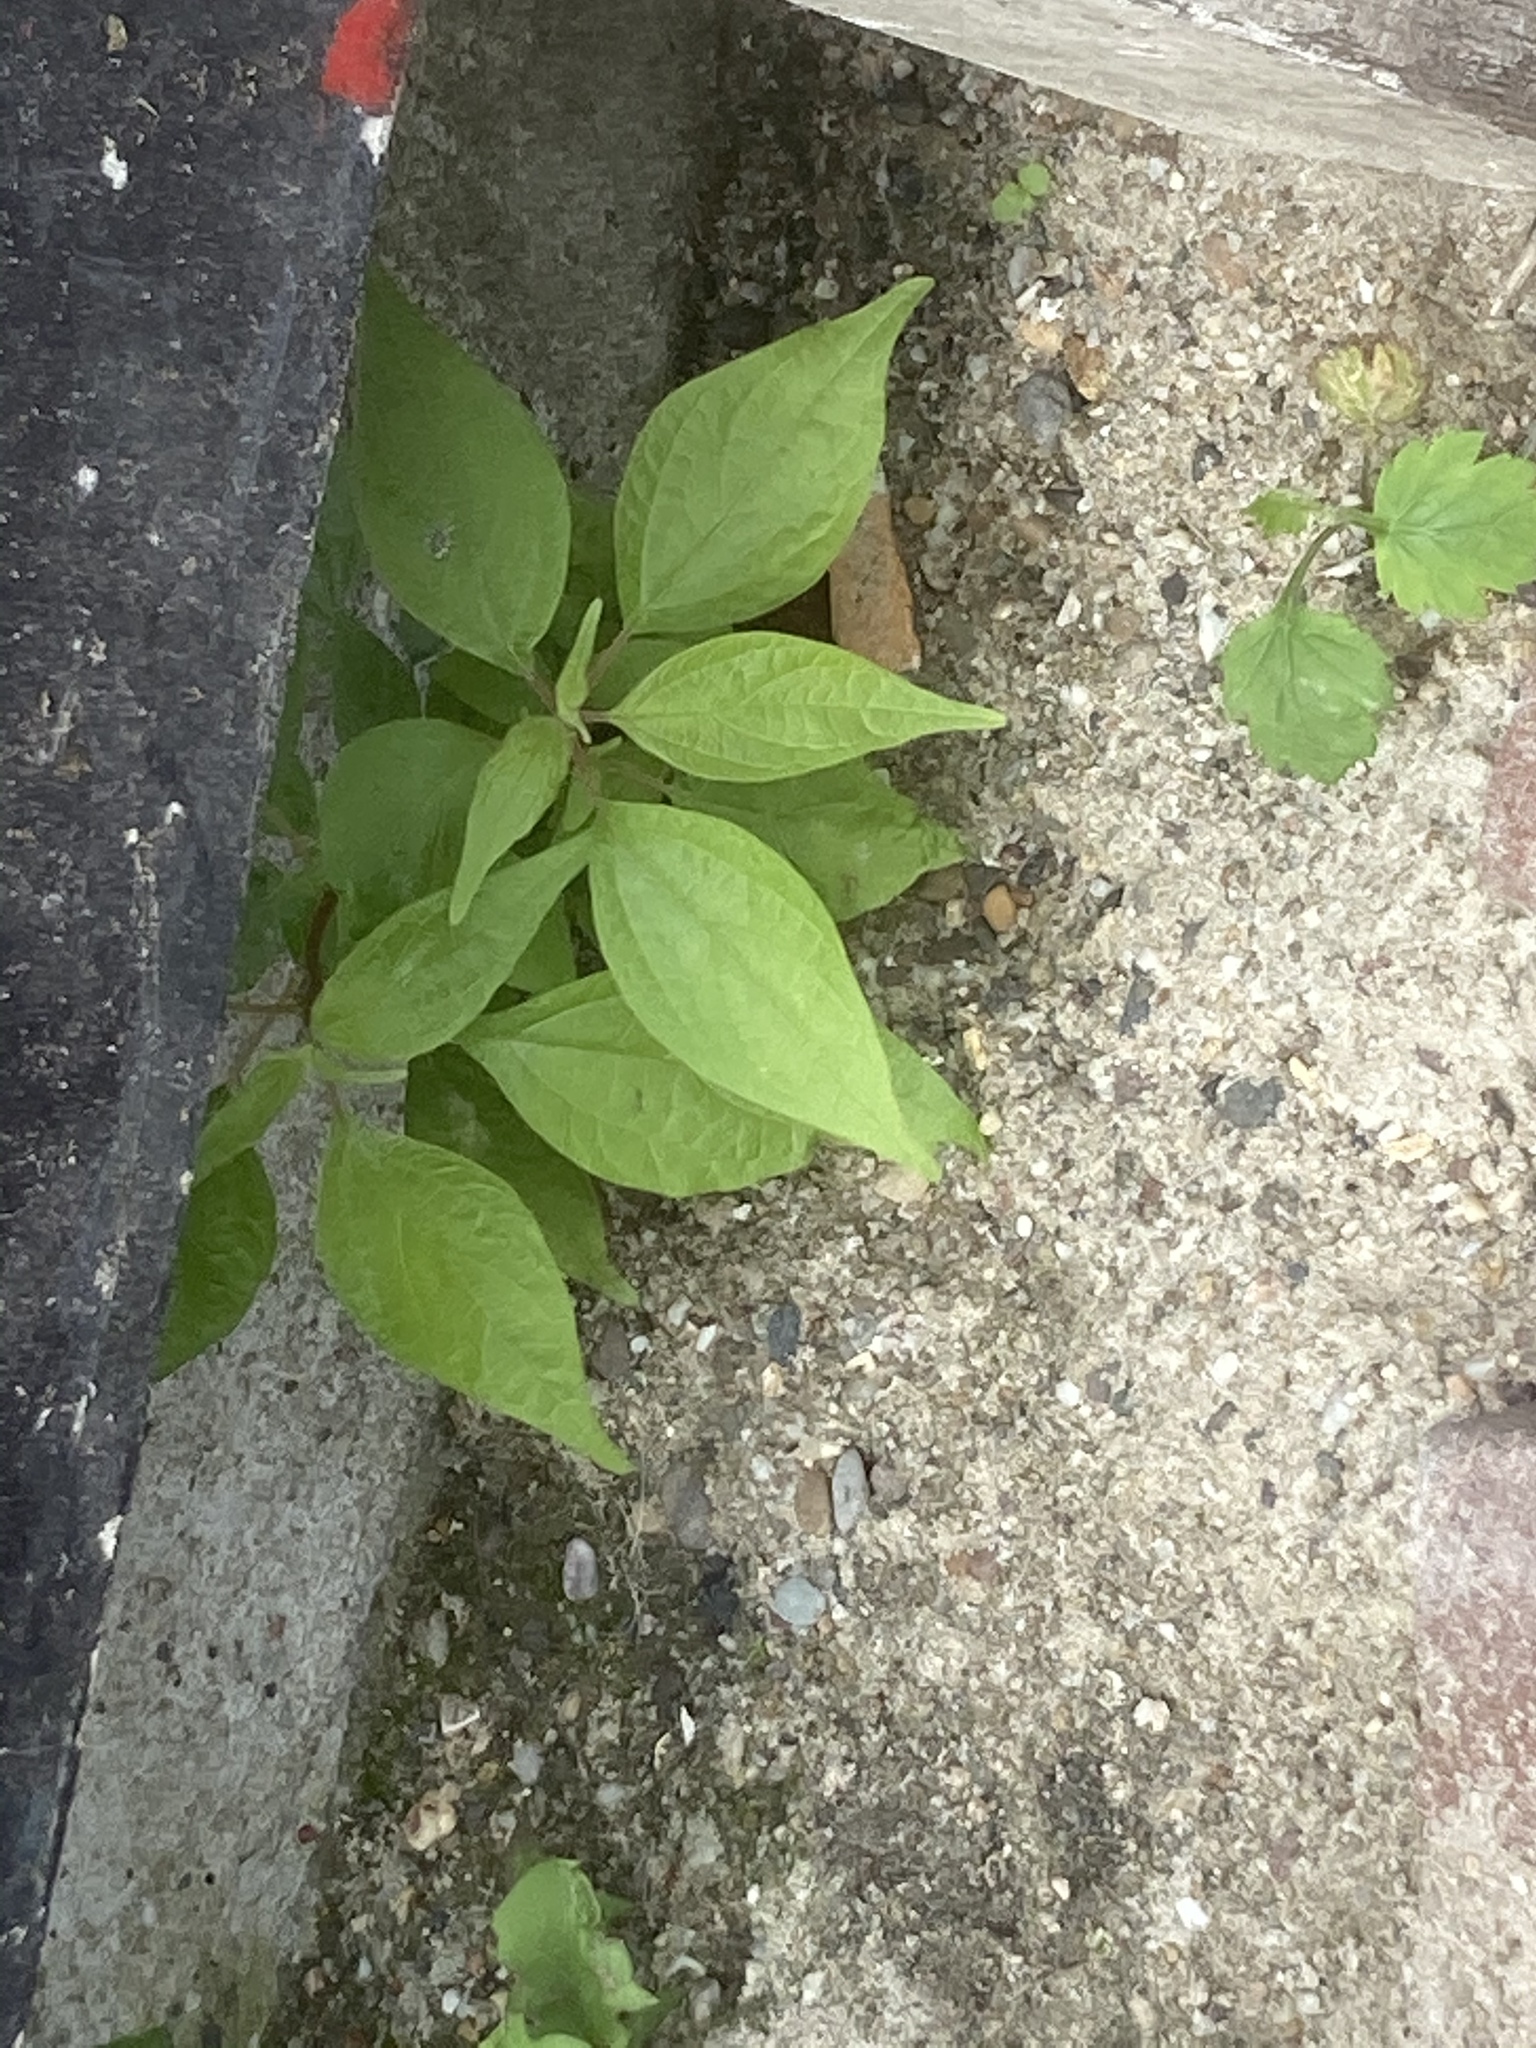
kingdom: Plantae
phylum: Tracheophyta
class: Magnoliopsida
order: Rosales
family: Urticaceae
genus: Parietaria
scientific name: Parietaria officinalis
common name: Eastern pellitory-of-the-wall
